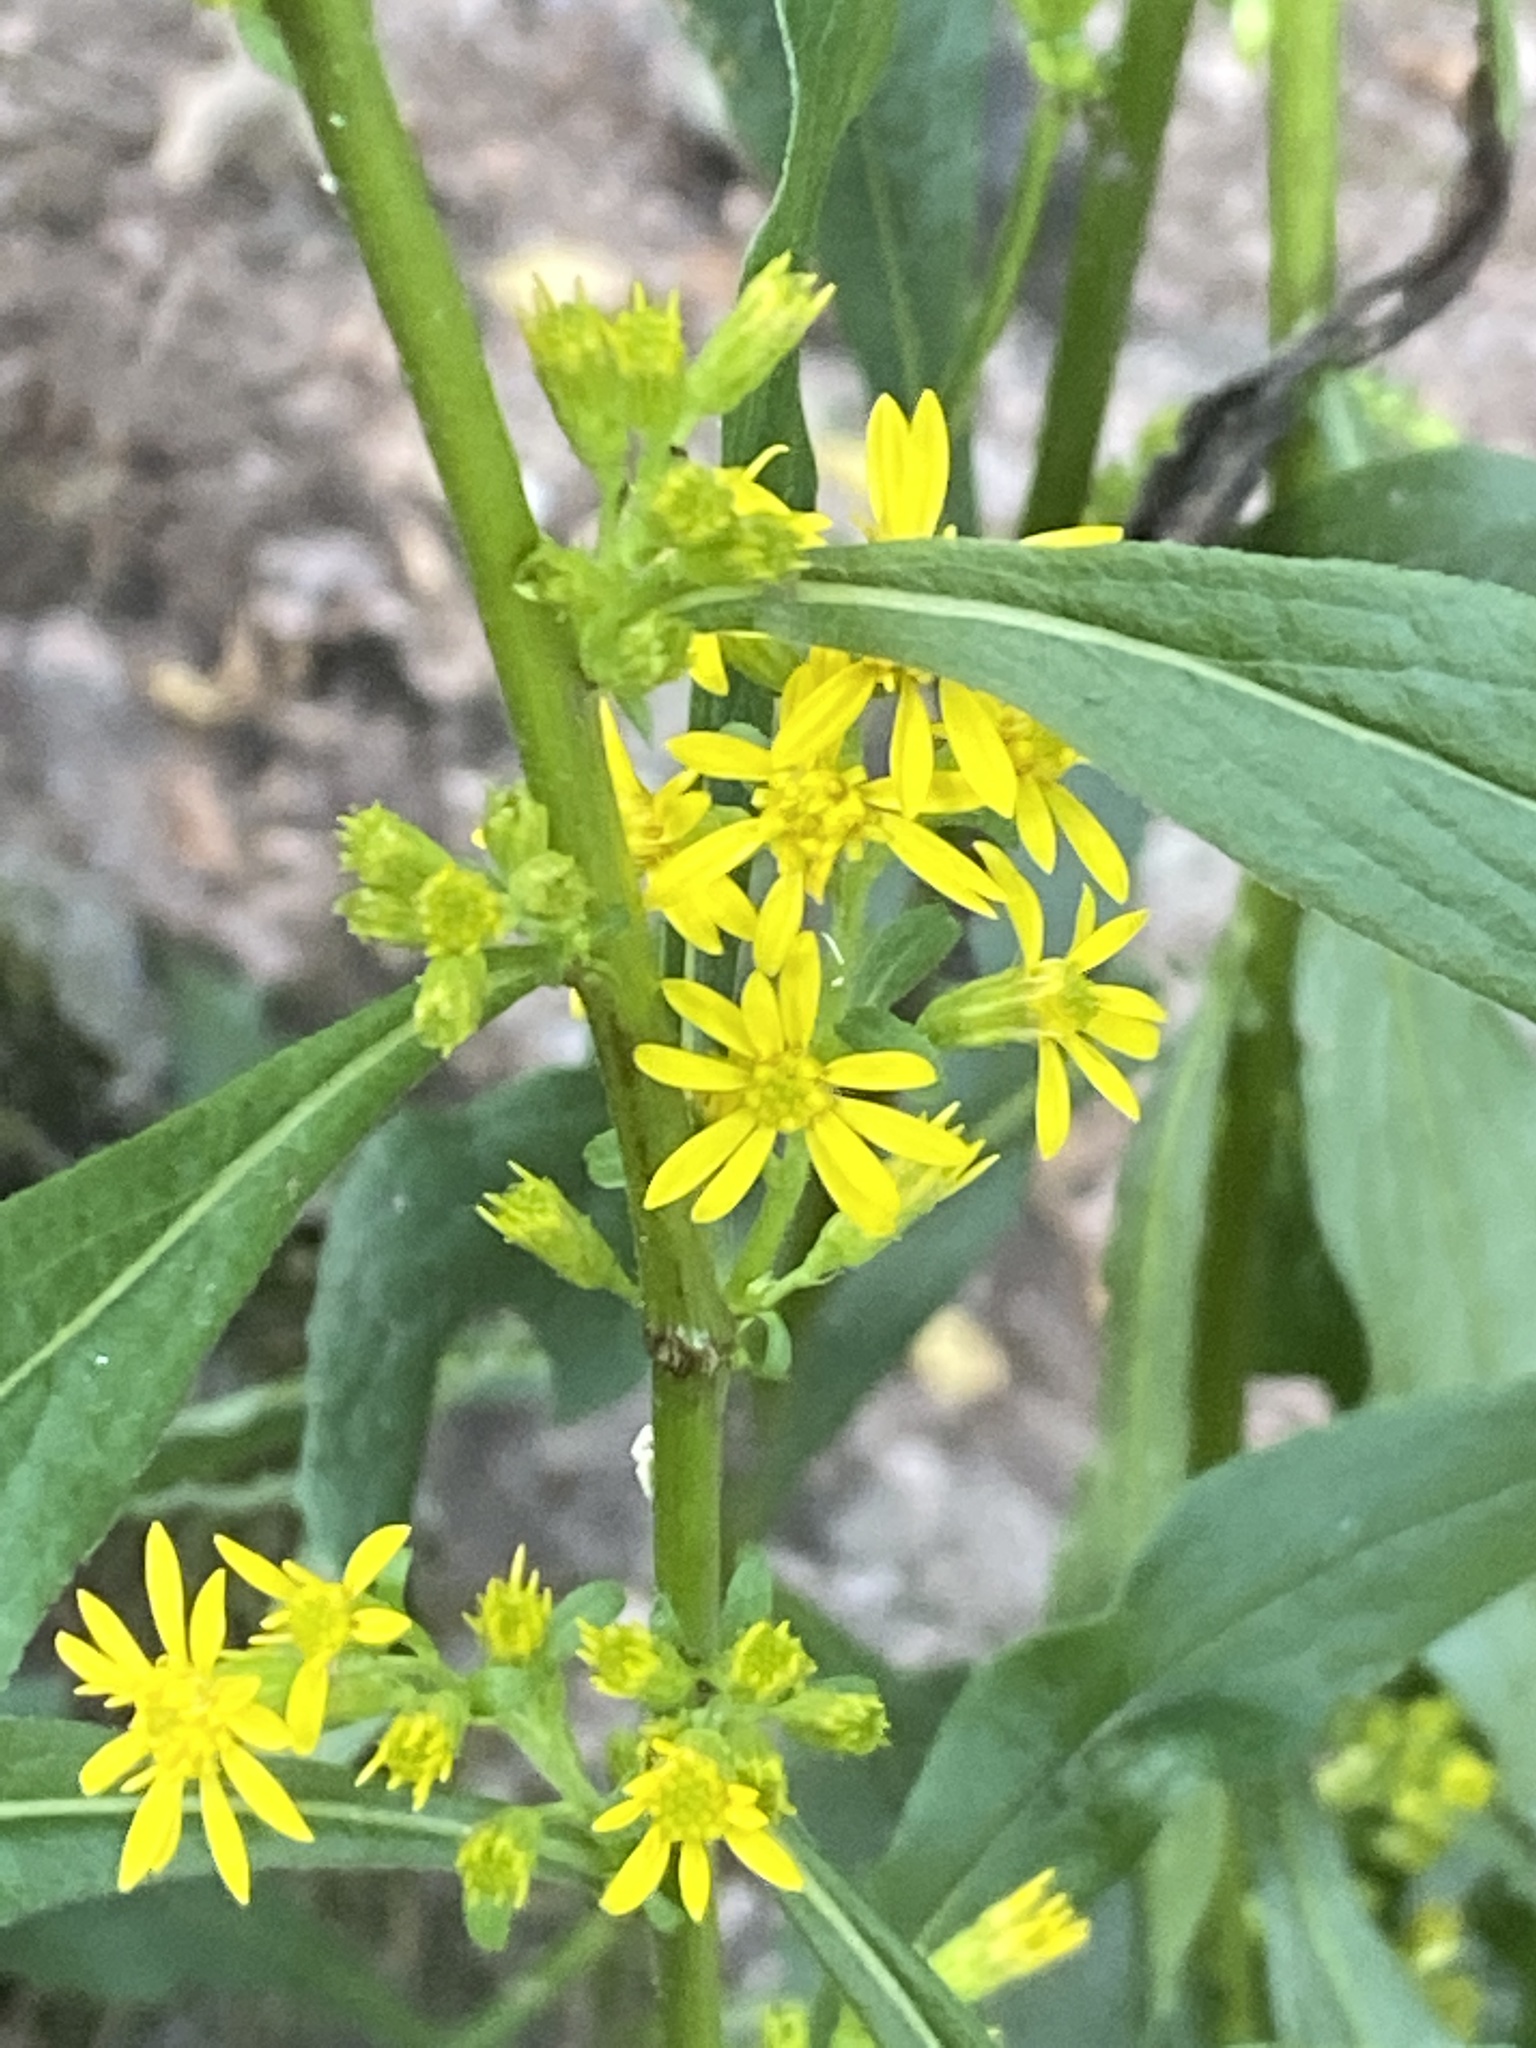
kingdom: Plantae
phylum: Tracheophyta
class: Magnoliopsida
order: Asterales
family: Asteraceae
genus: Solidago
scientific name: Solidago virgaurea
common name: Goldenrod
